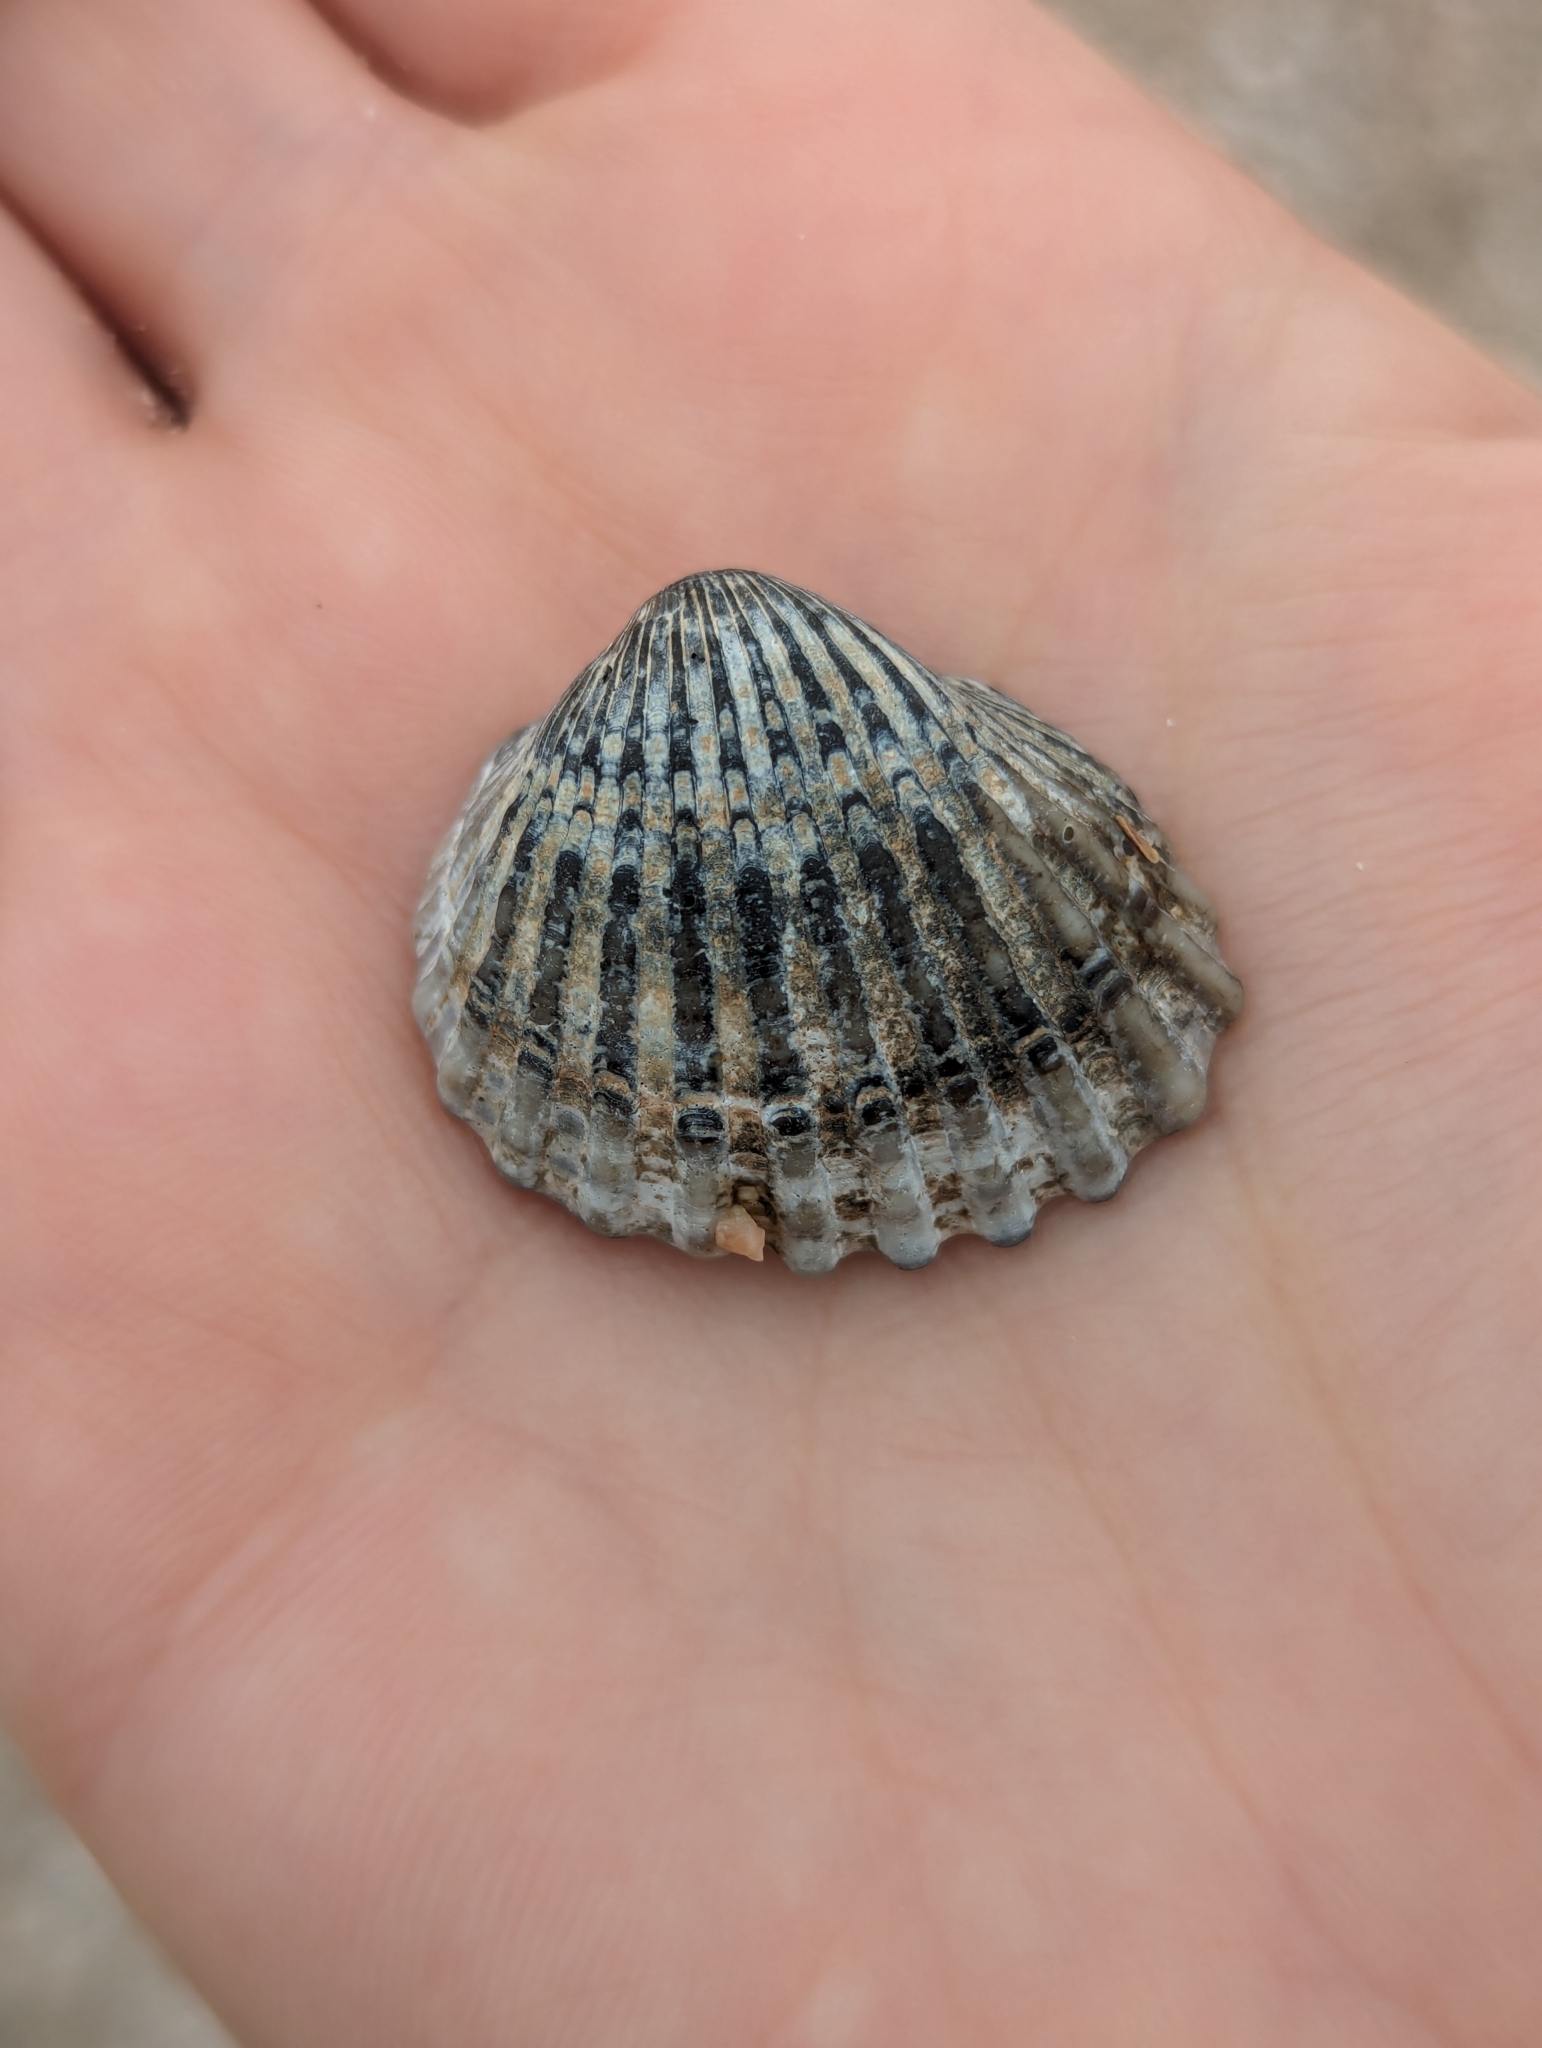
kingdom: Animalia
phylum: Mollusca
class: Bivalvia
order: Arcida
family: Arcidae
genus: Tegillarca
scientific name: Tegillarca granosa
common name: Blood clam
